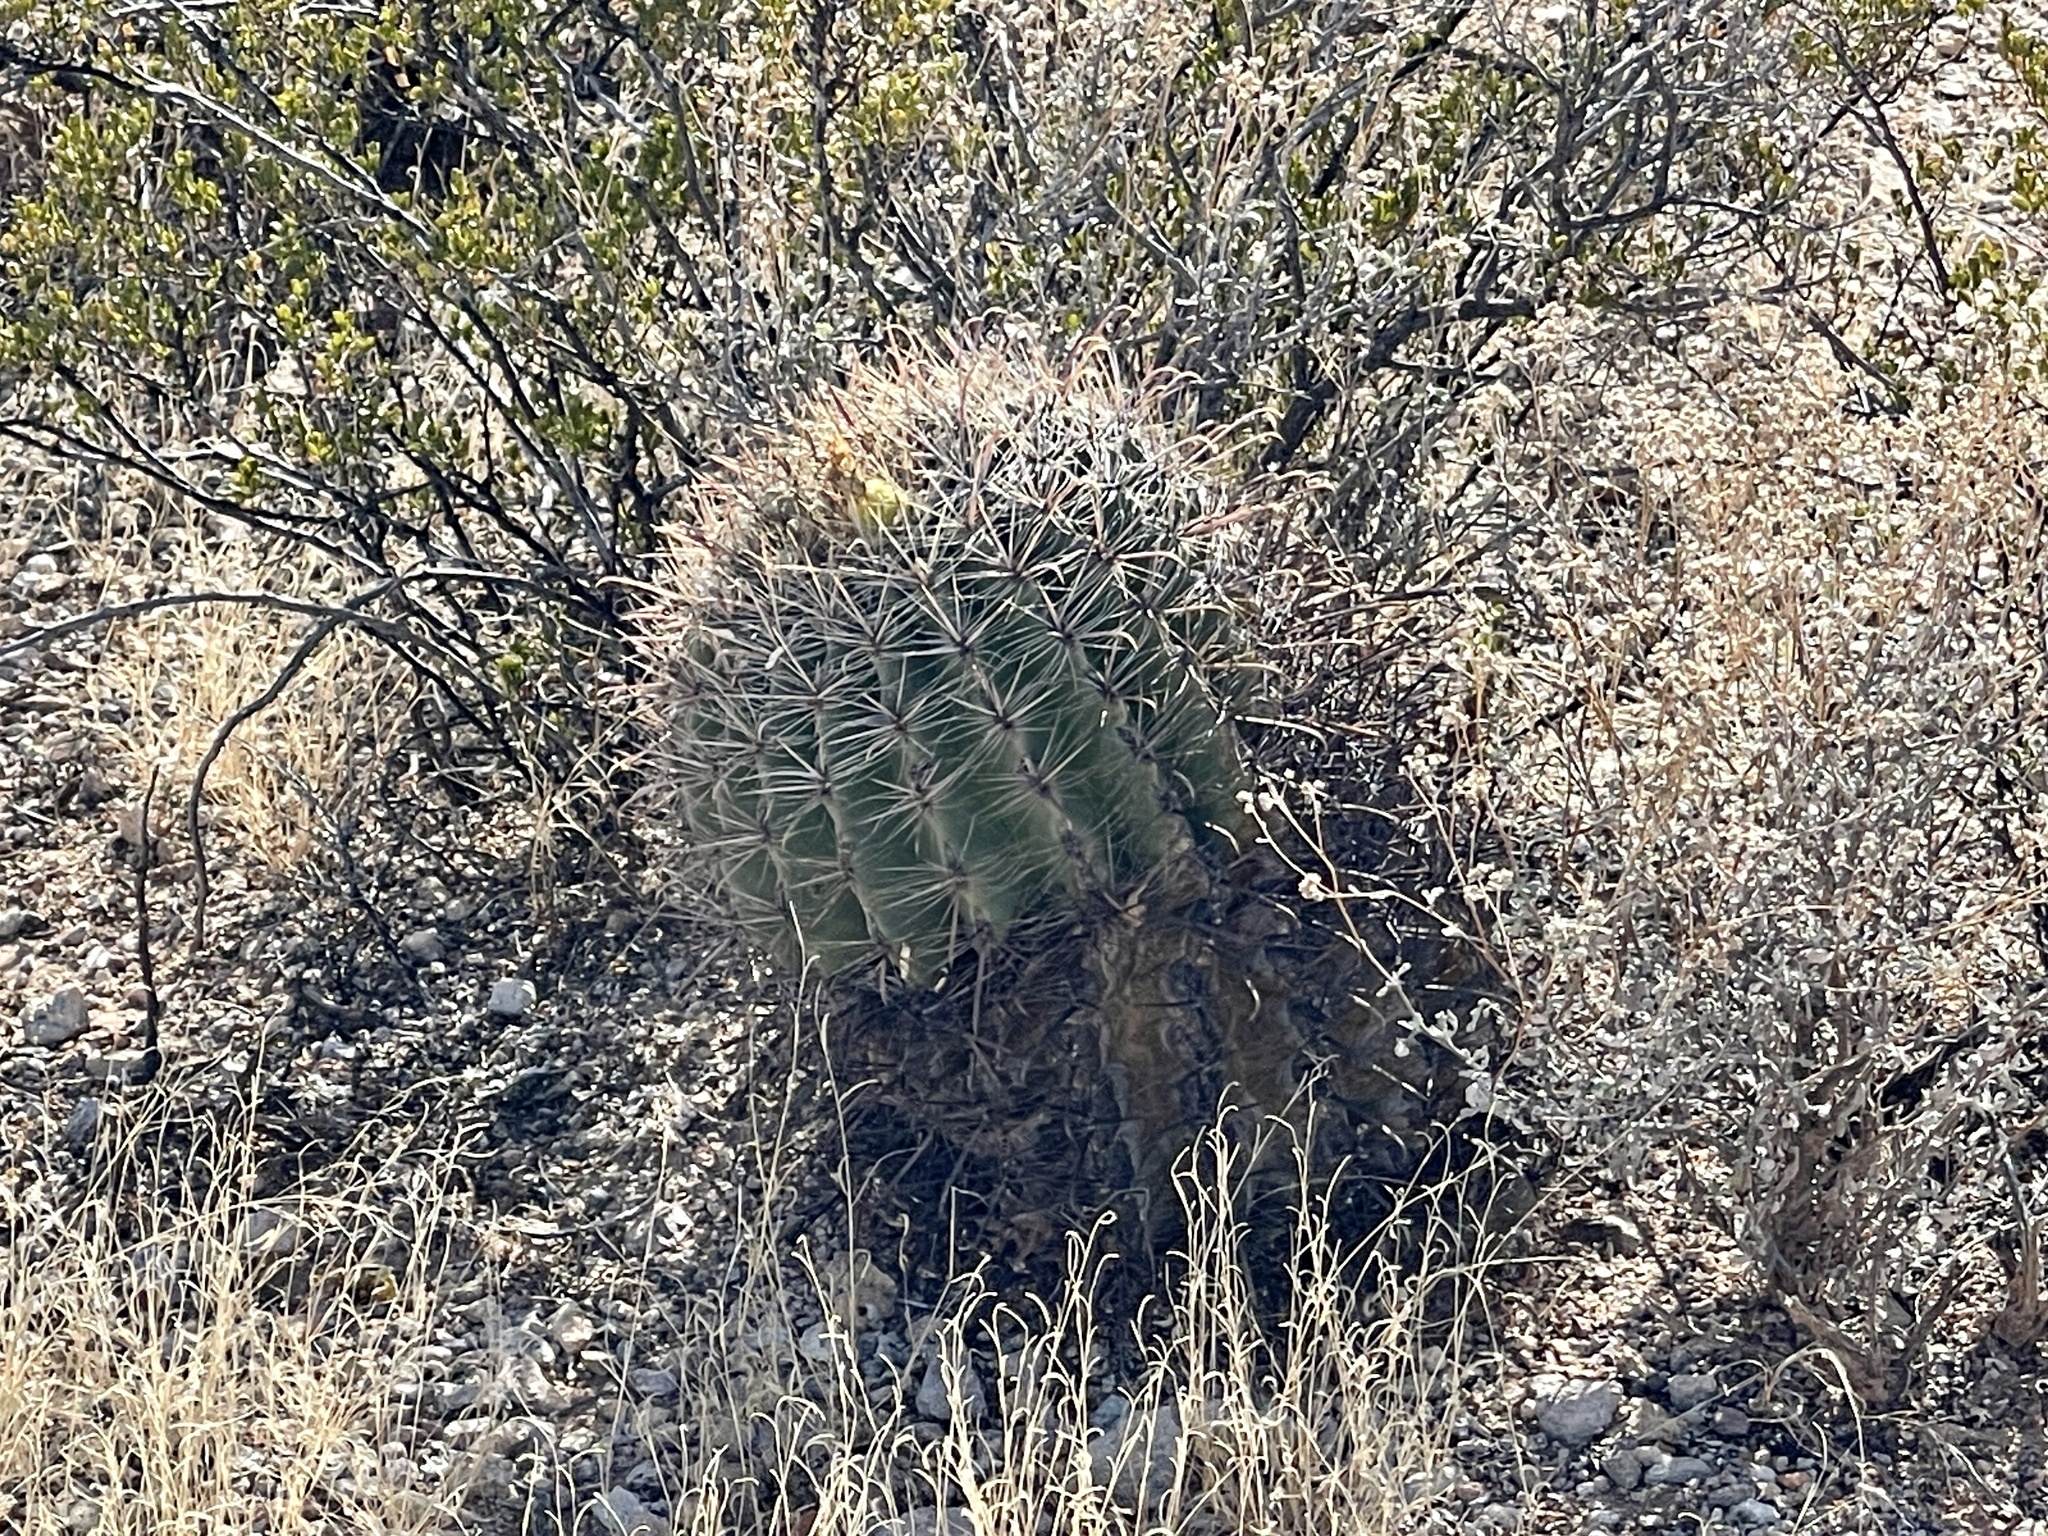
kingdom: Plantae
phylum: Tracheophyta
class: Magnoliopsida
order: Caryophyllales
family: Cactaceae
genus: Ferocactus
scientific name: Ferocactus wislizeni
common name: Candy barrel cactus
